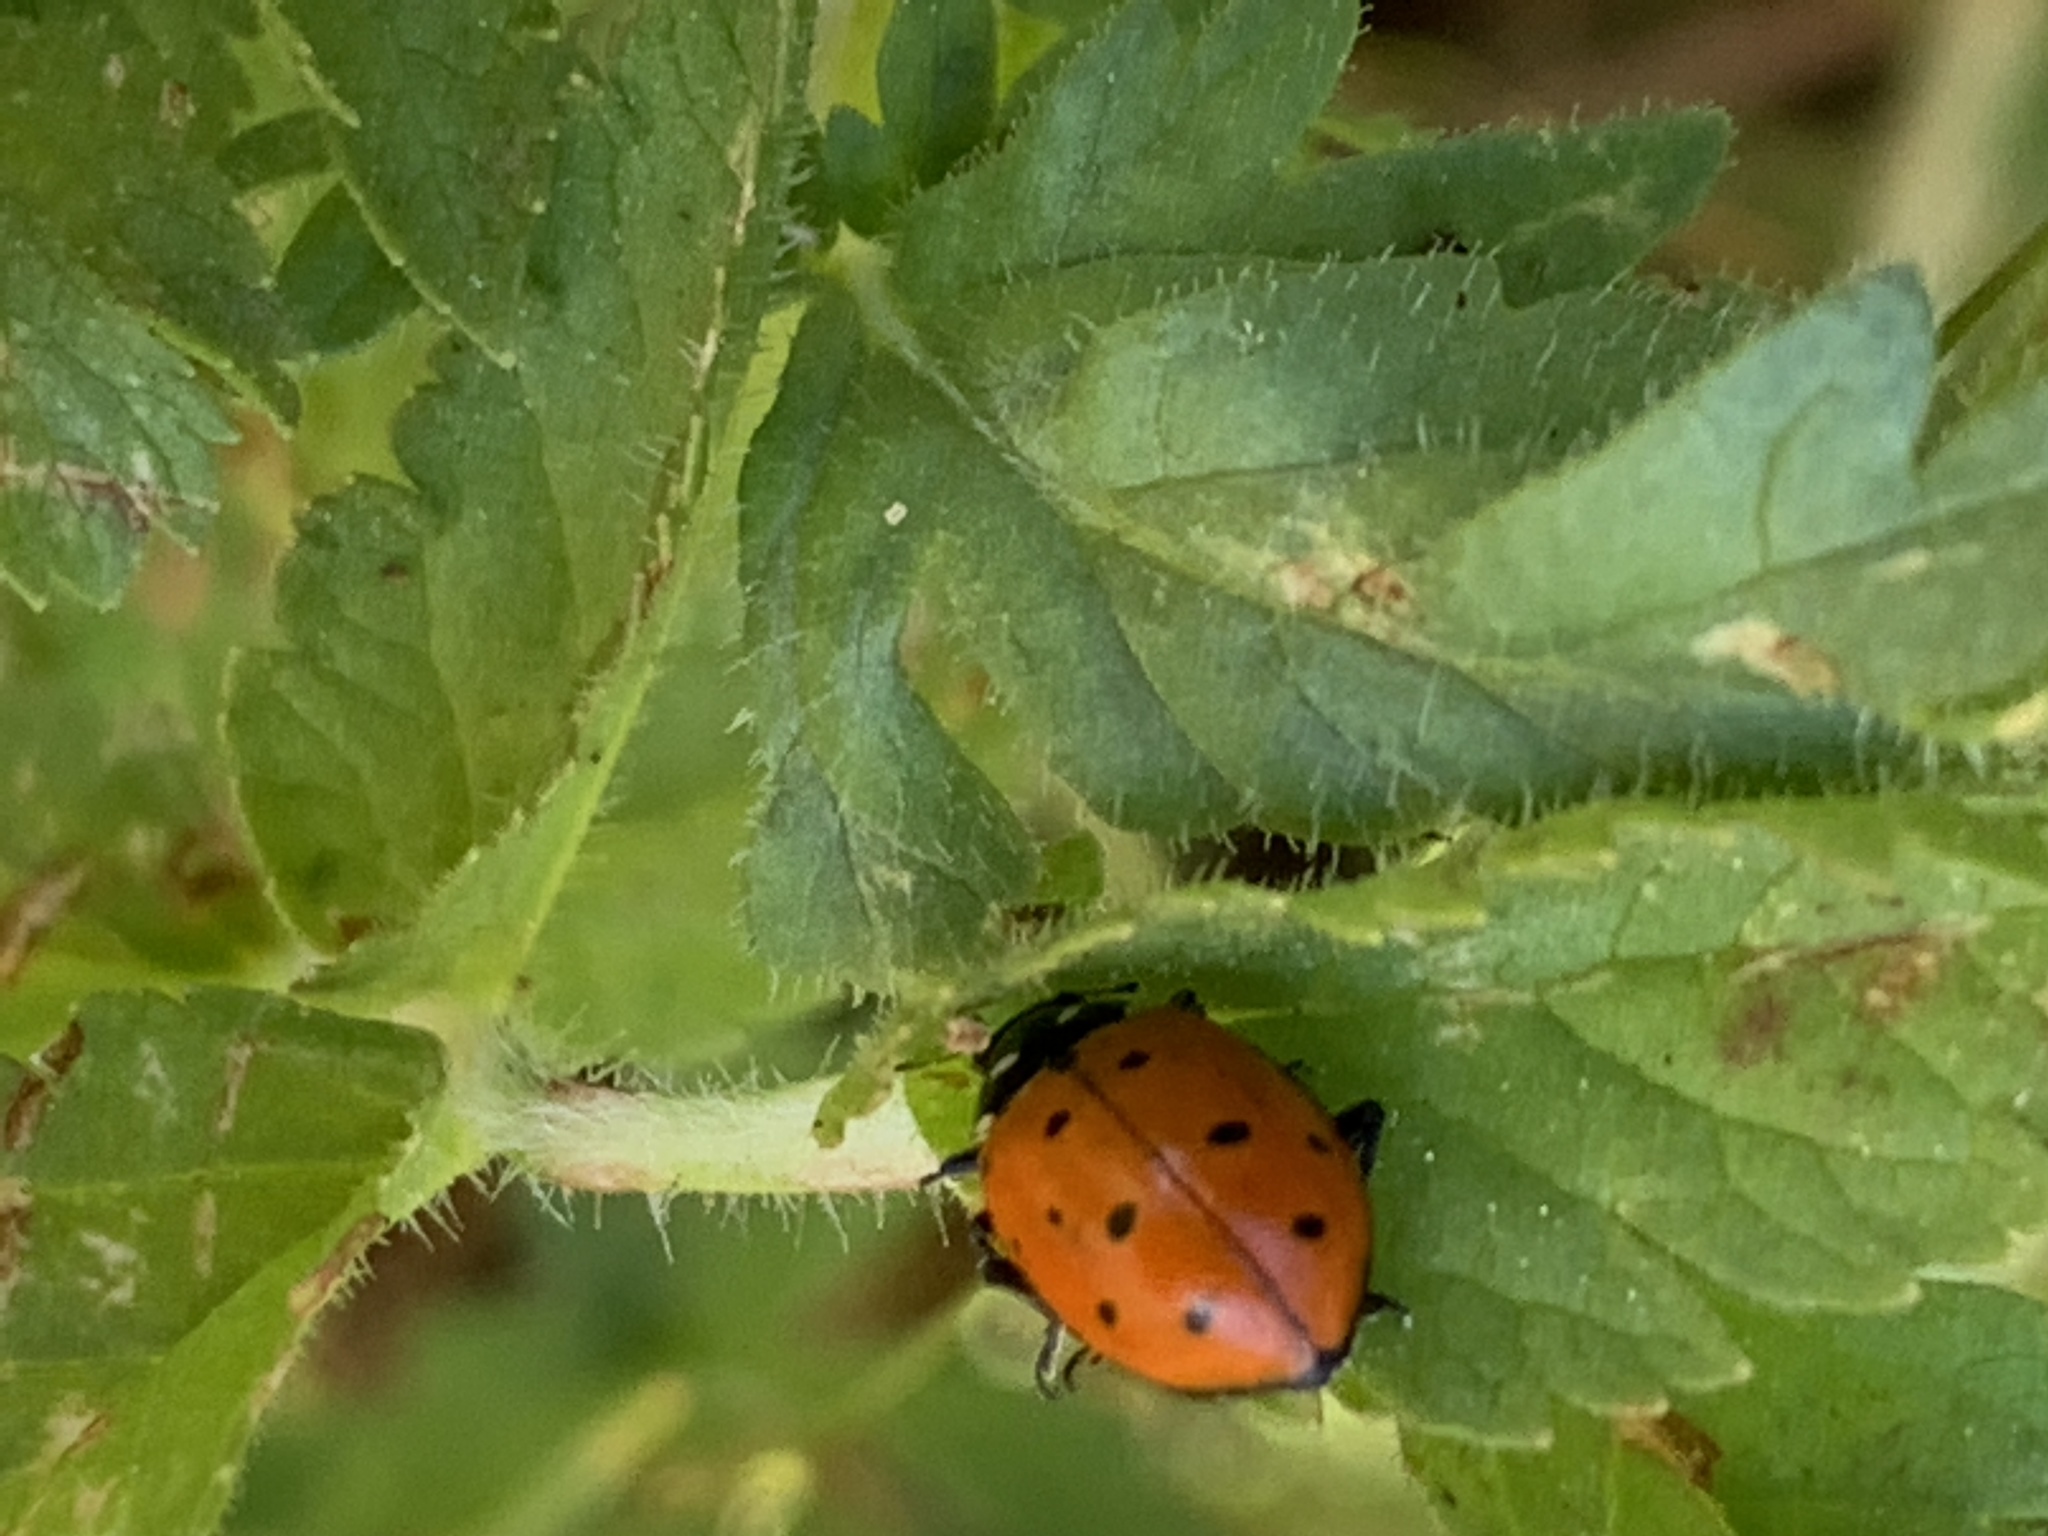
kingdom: Animalia
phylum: Arthropoda
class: Insecta
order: Coleoptera
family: Coccinellidae
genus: Hippodamia
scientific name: Hippodamia convergens
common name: Convergent lady beetle
